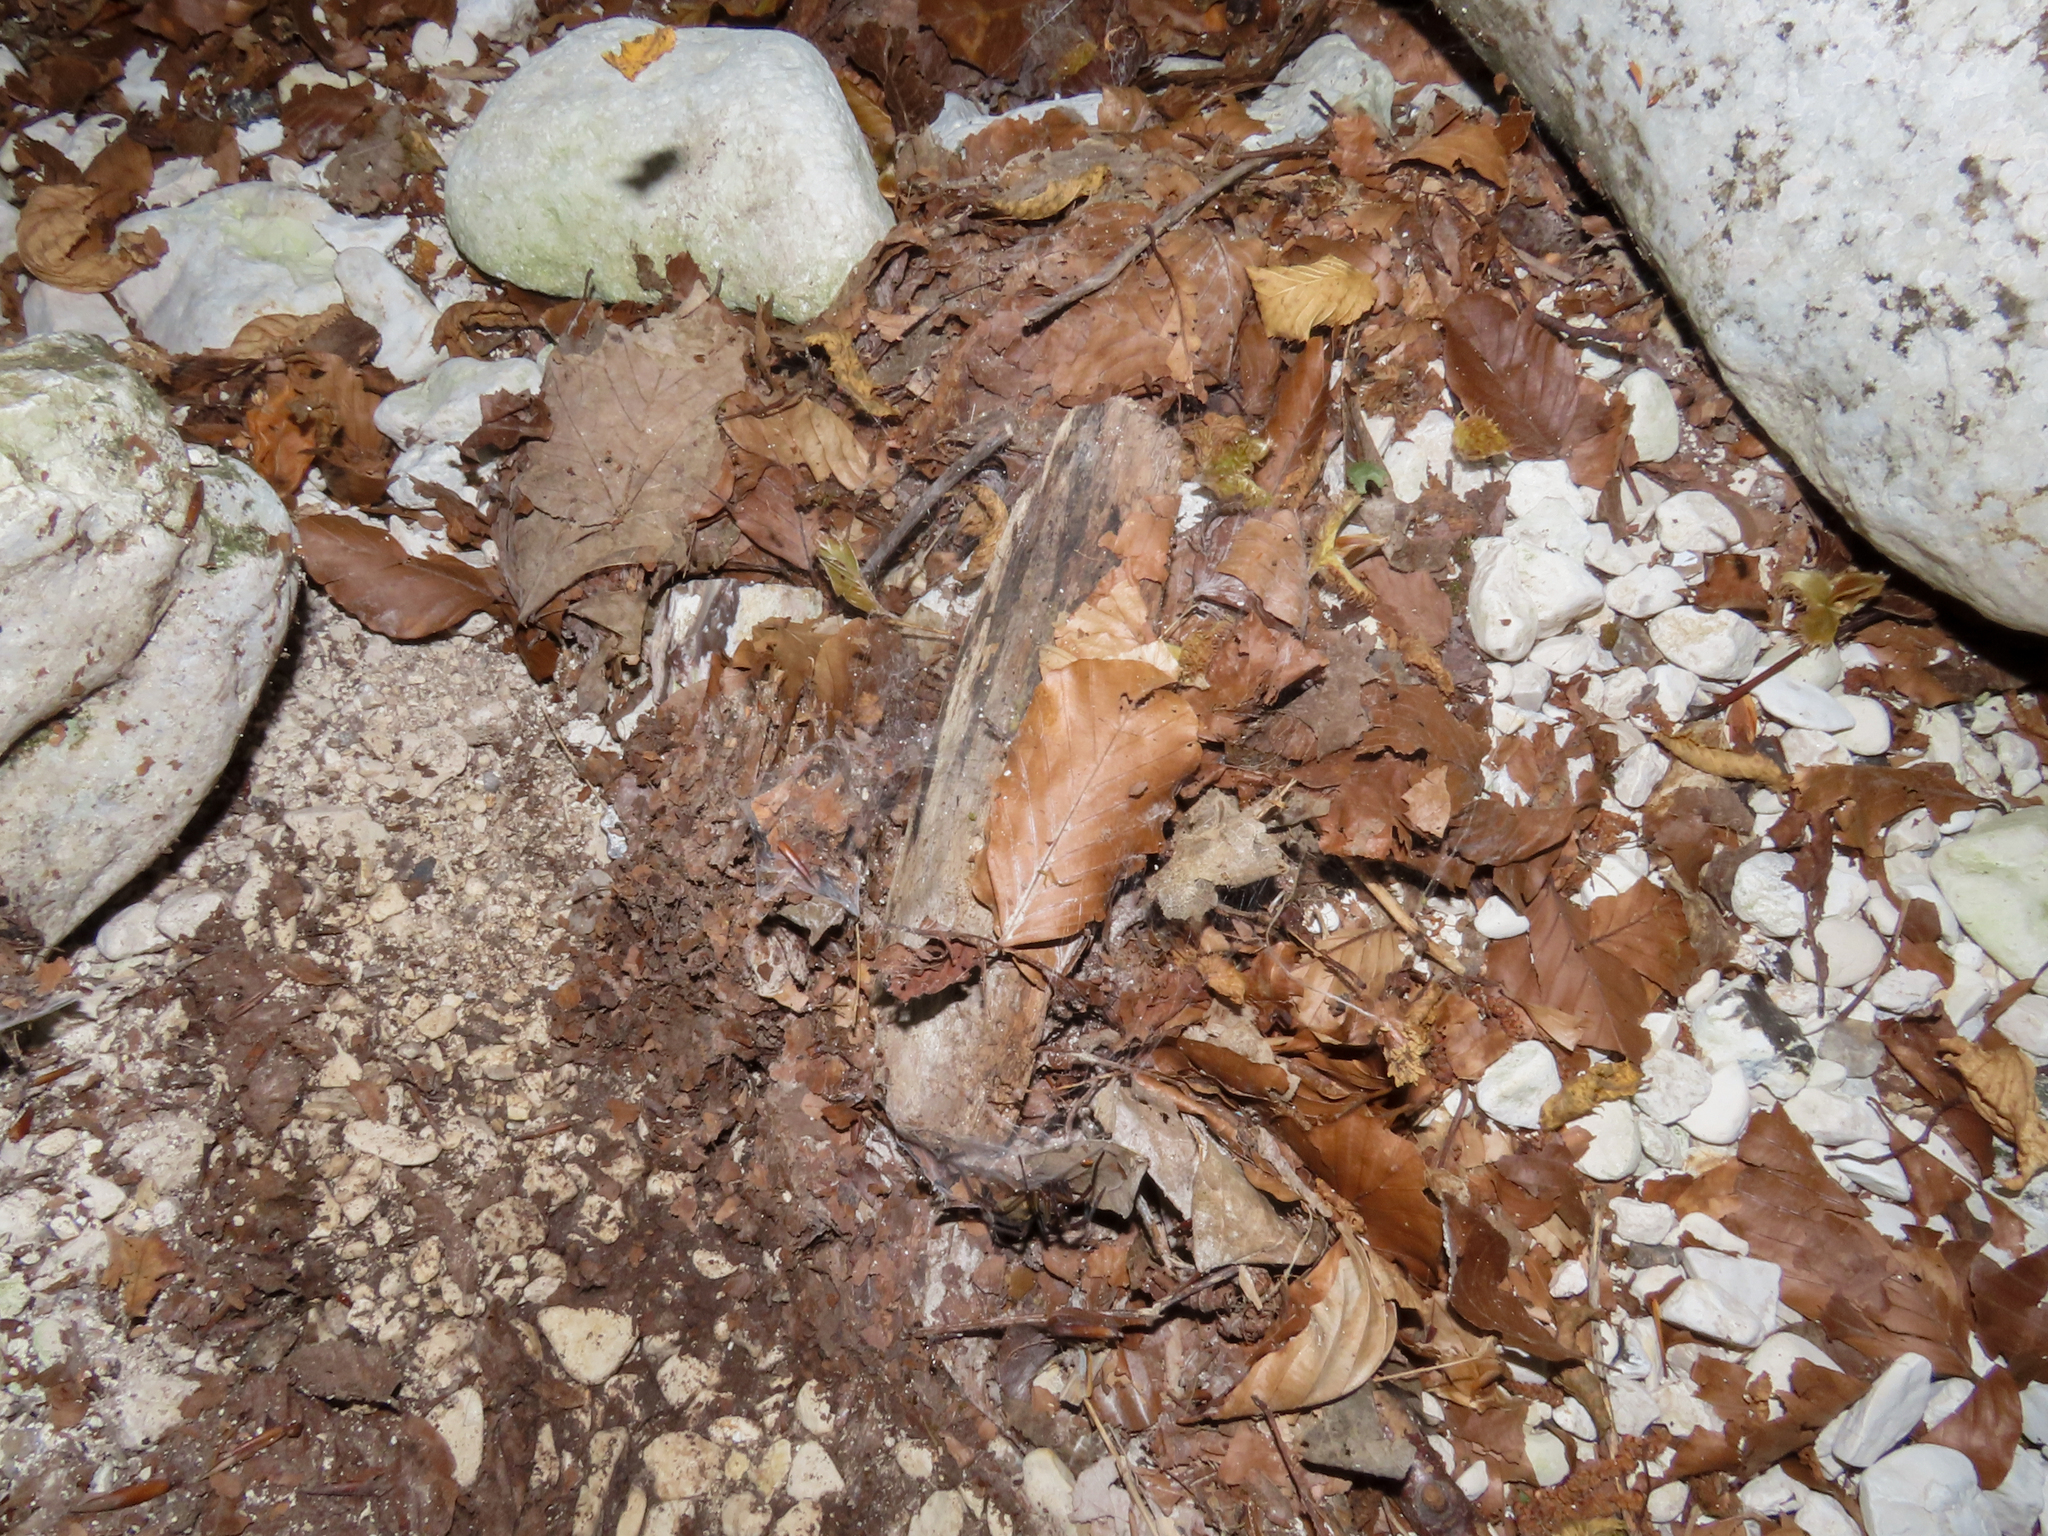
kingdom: Animalia
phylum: Arthropoda
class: Arachnida
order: Araneae
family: Agelenidae
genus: Aterigena
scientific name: Aterigena ligurica
